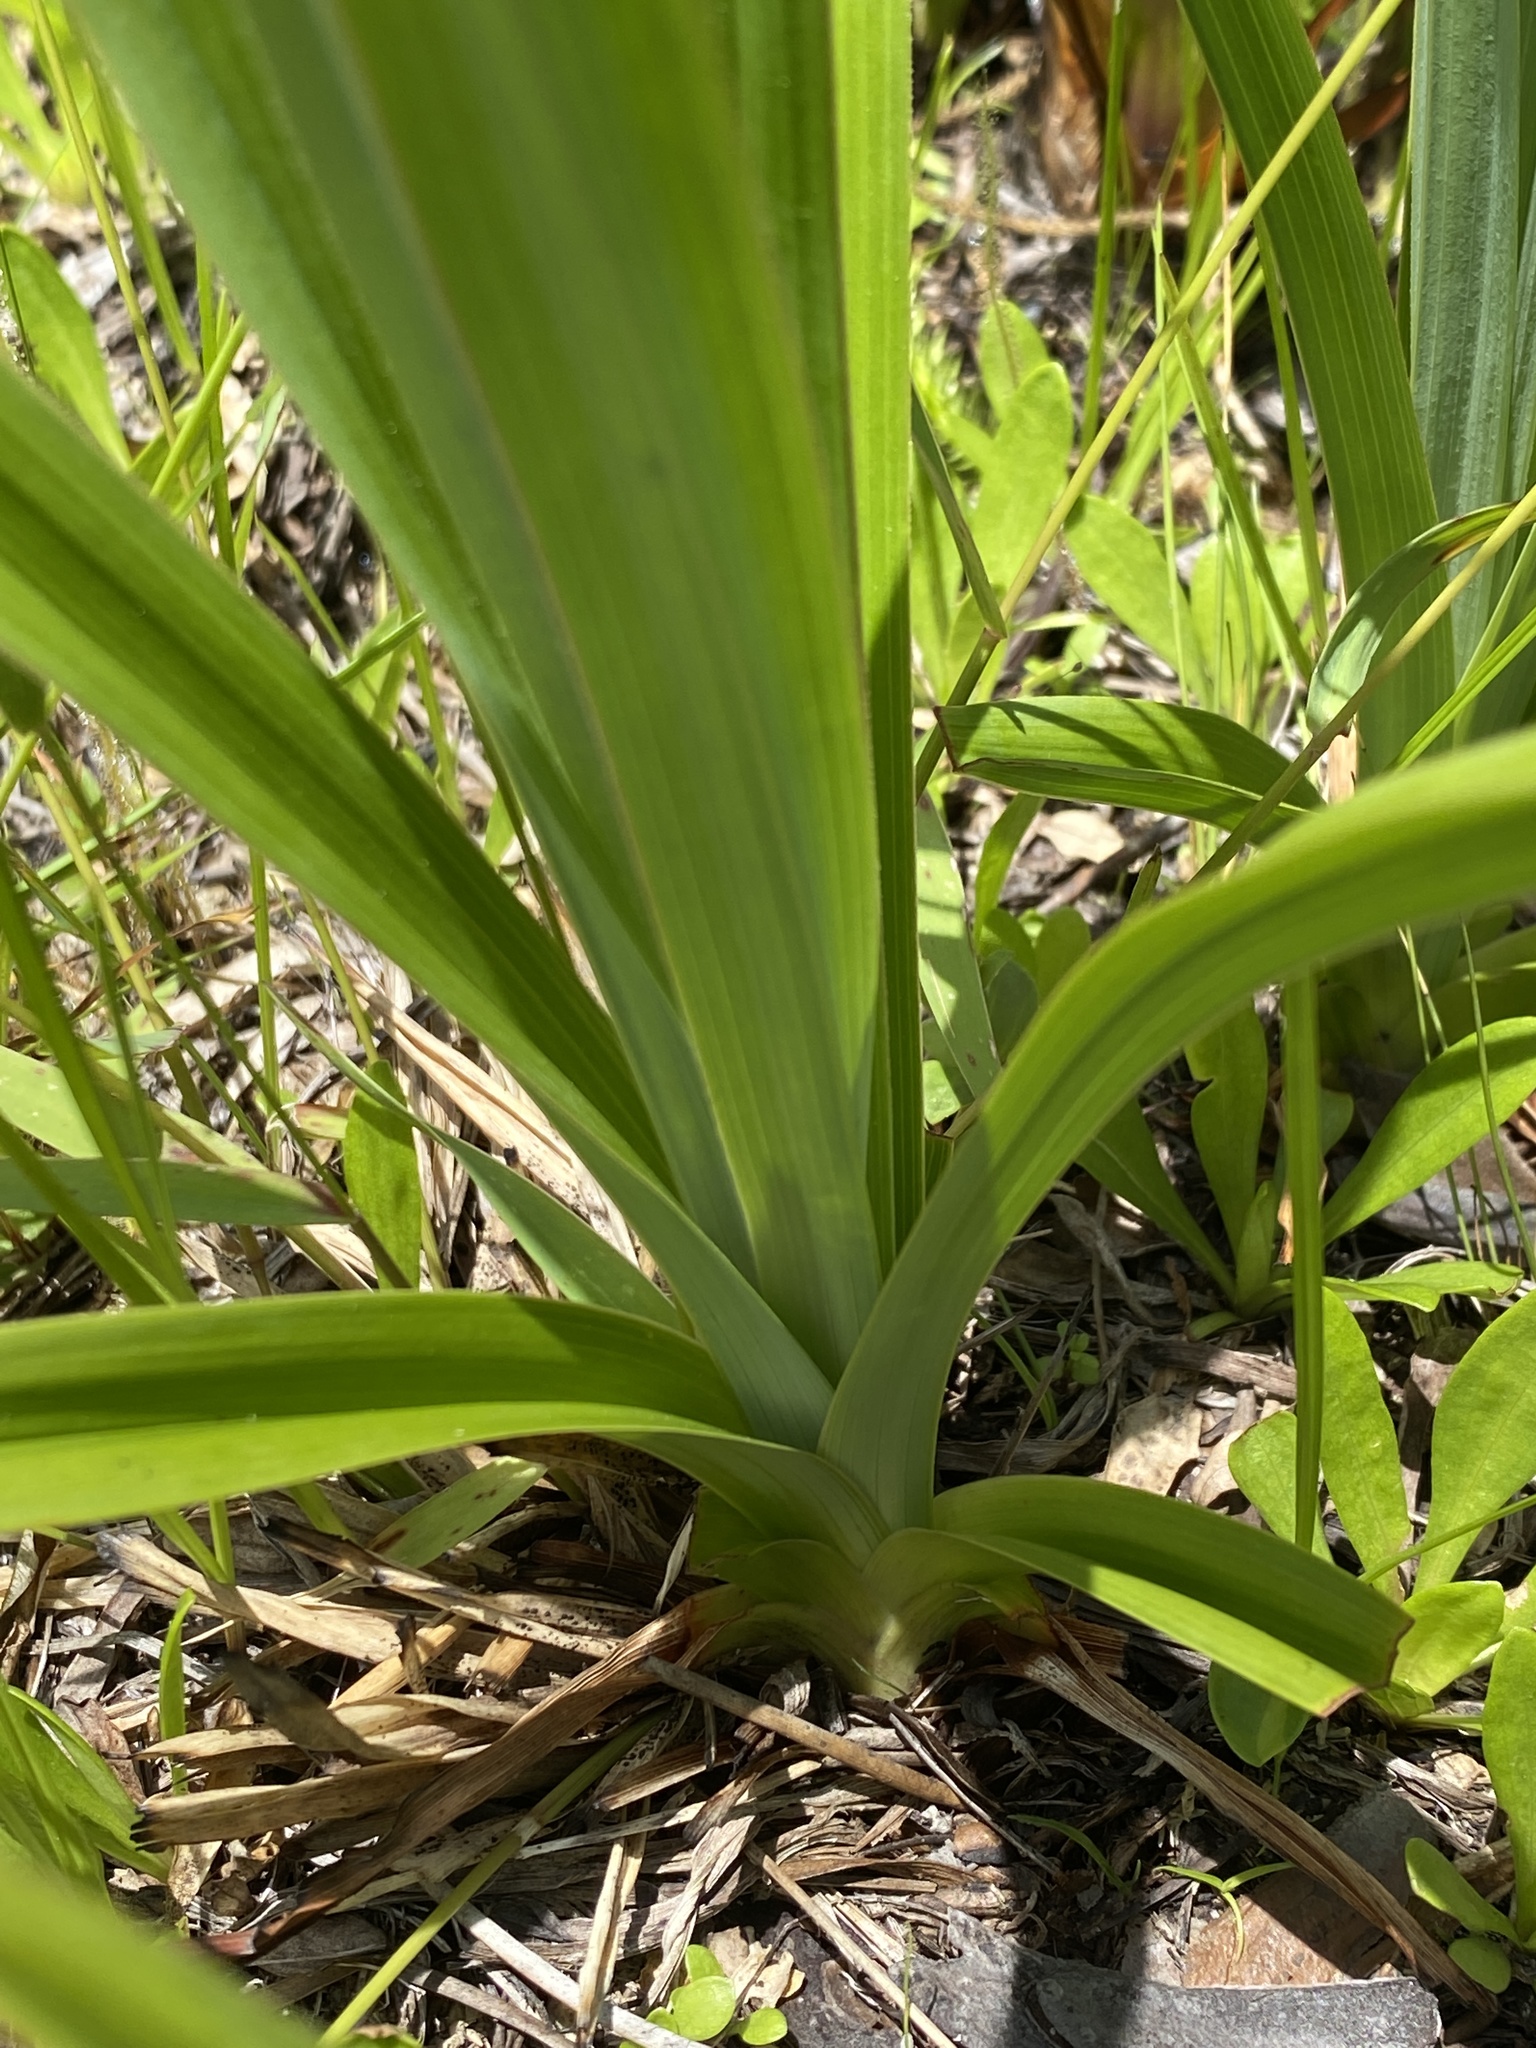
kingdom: Plantae
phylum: Tracheophyta
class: Liliopsida
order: Liliales
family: Melanthiaceae
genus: Zigadenus
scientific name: Zigadenus glaberrimus
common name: Sandbog death camas
